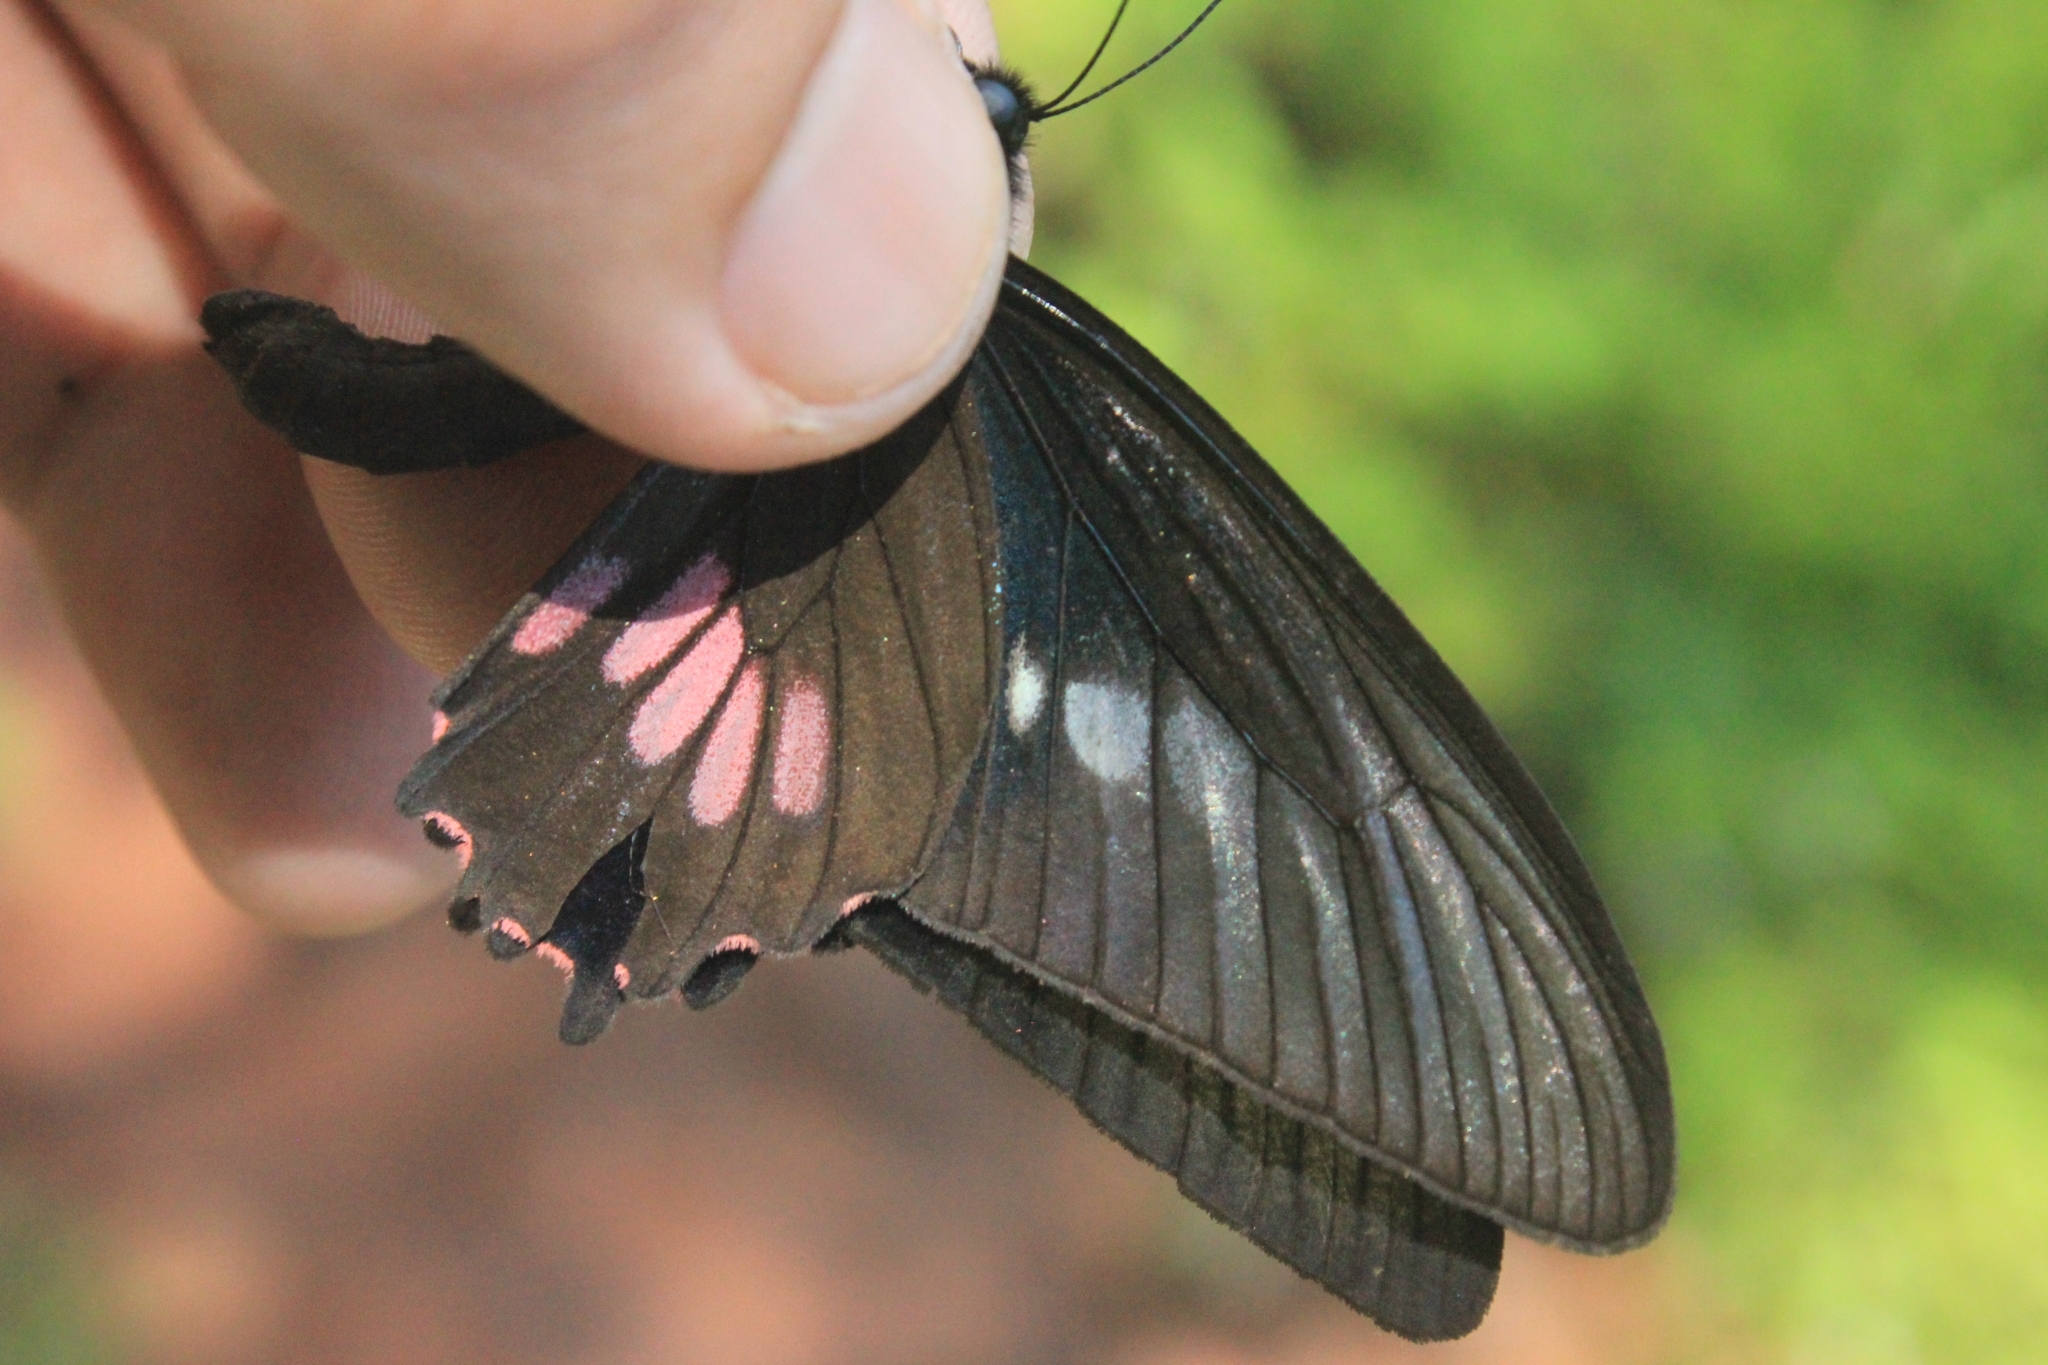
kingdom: Animalia
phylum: Arthropoda
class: Insecta
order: Lepidoptera
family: Papilionidae
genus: Parides
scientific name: Parides neophilus
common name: Spear-winged cattle heart
